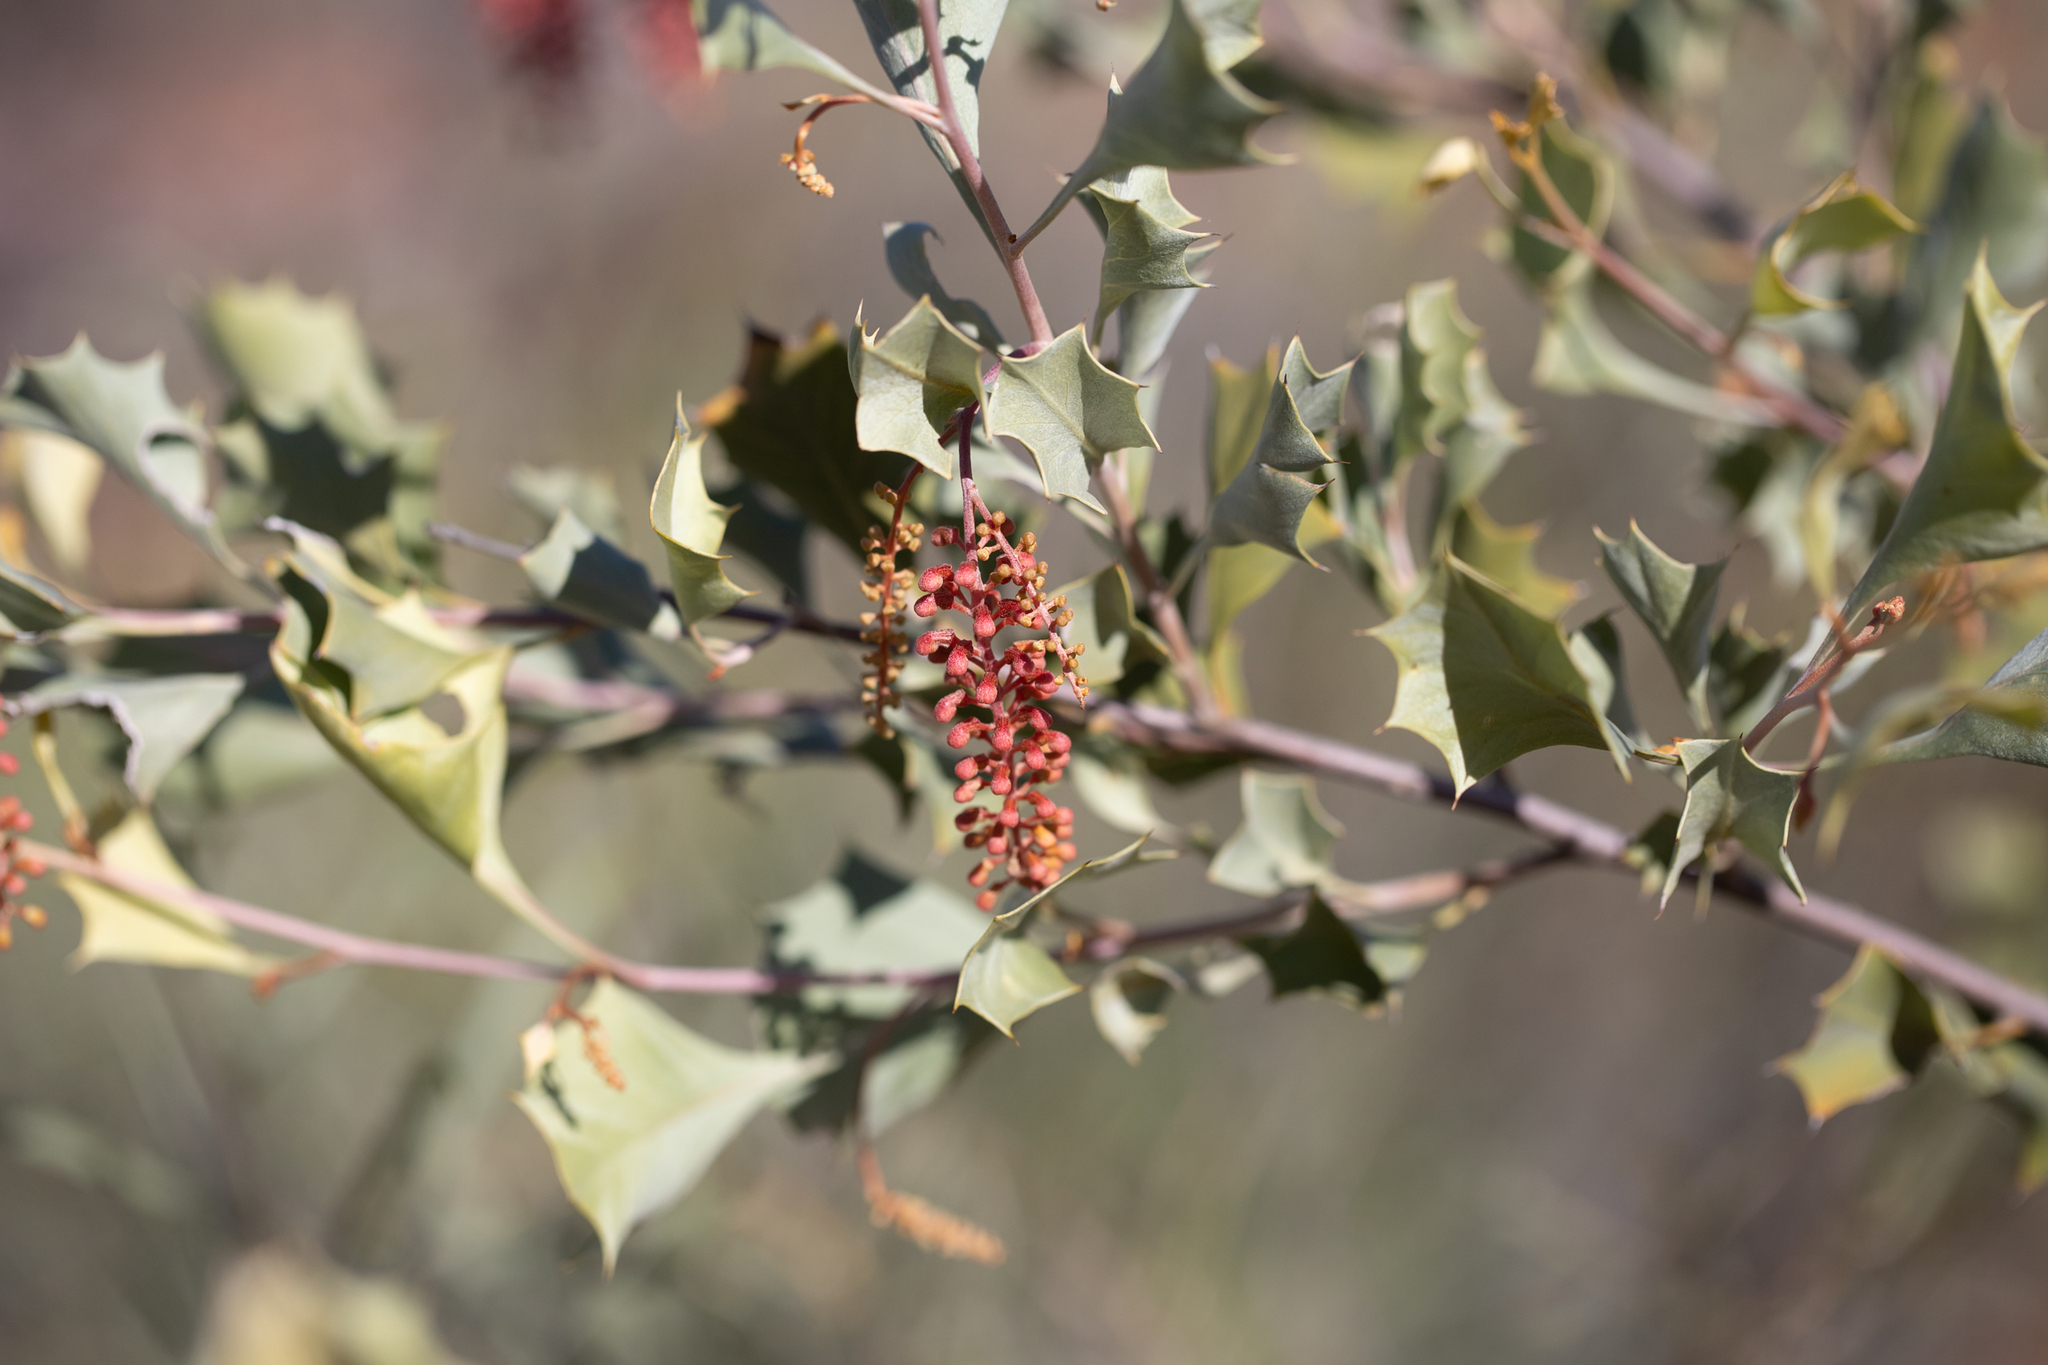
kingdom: Plantae
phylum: Tracheophyta
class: Magnoliopsida
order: Proteales
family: Proteaceae
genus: Grevillea
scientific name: Grevillea wickhamii
